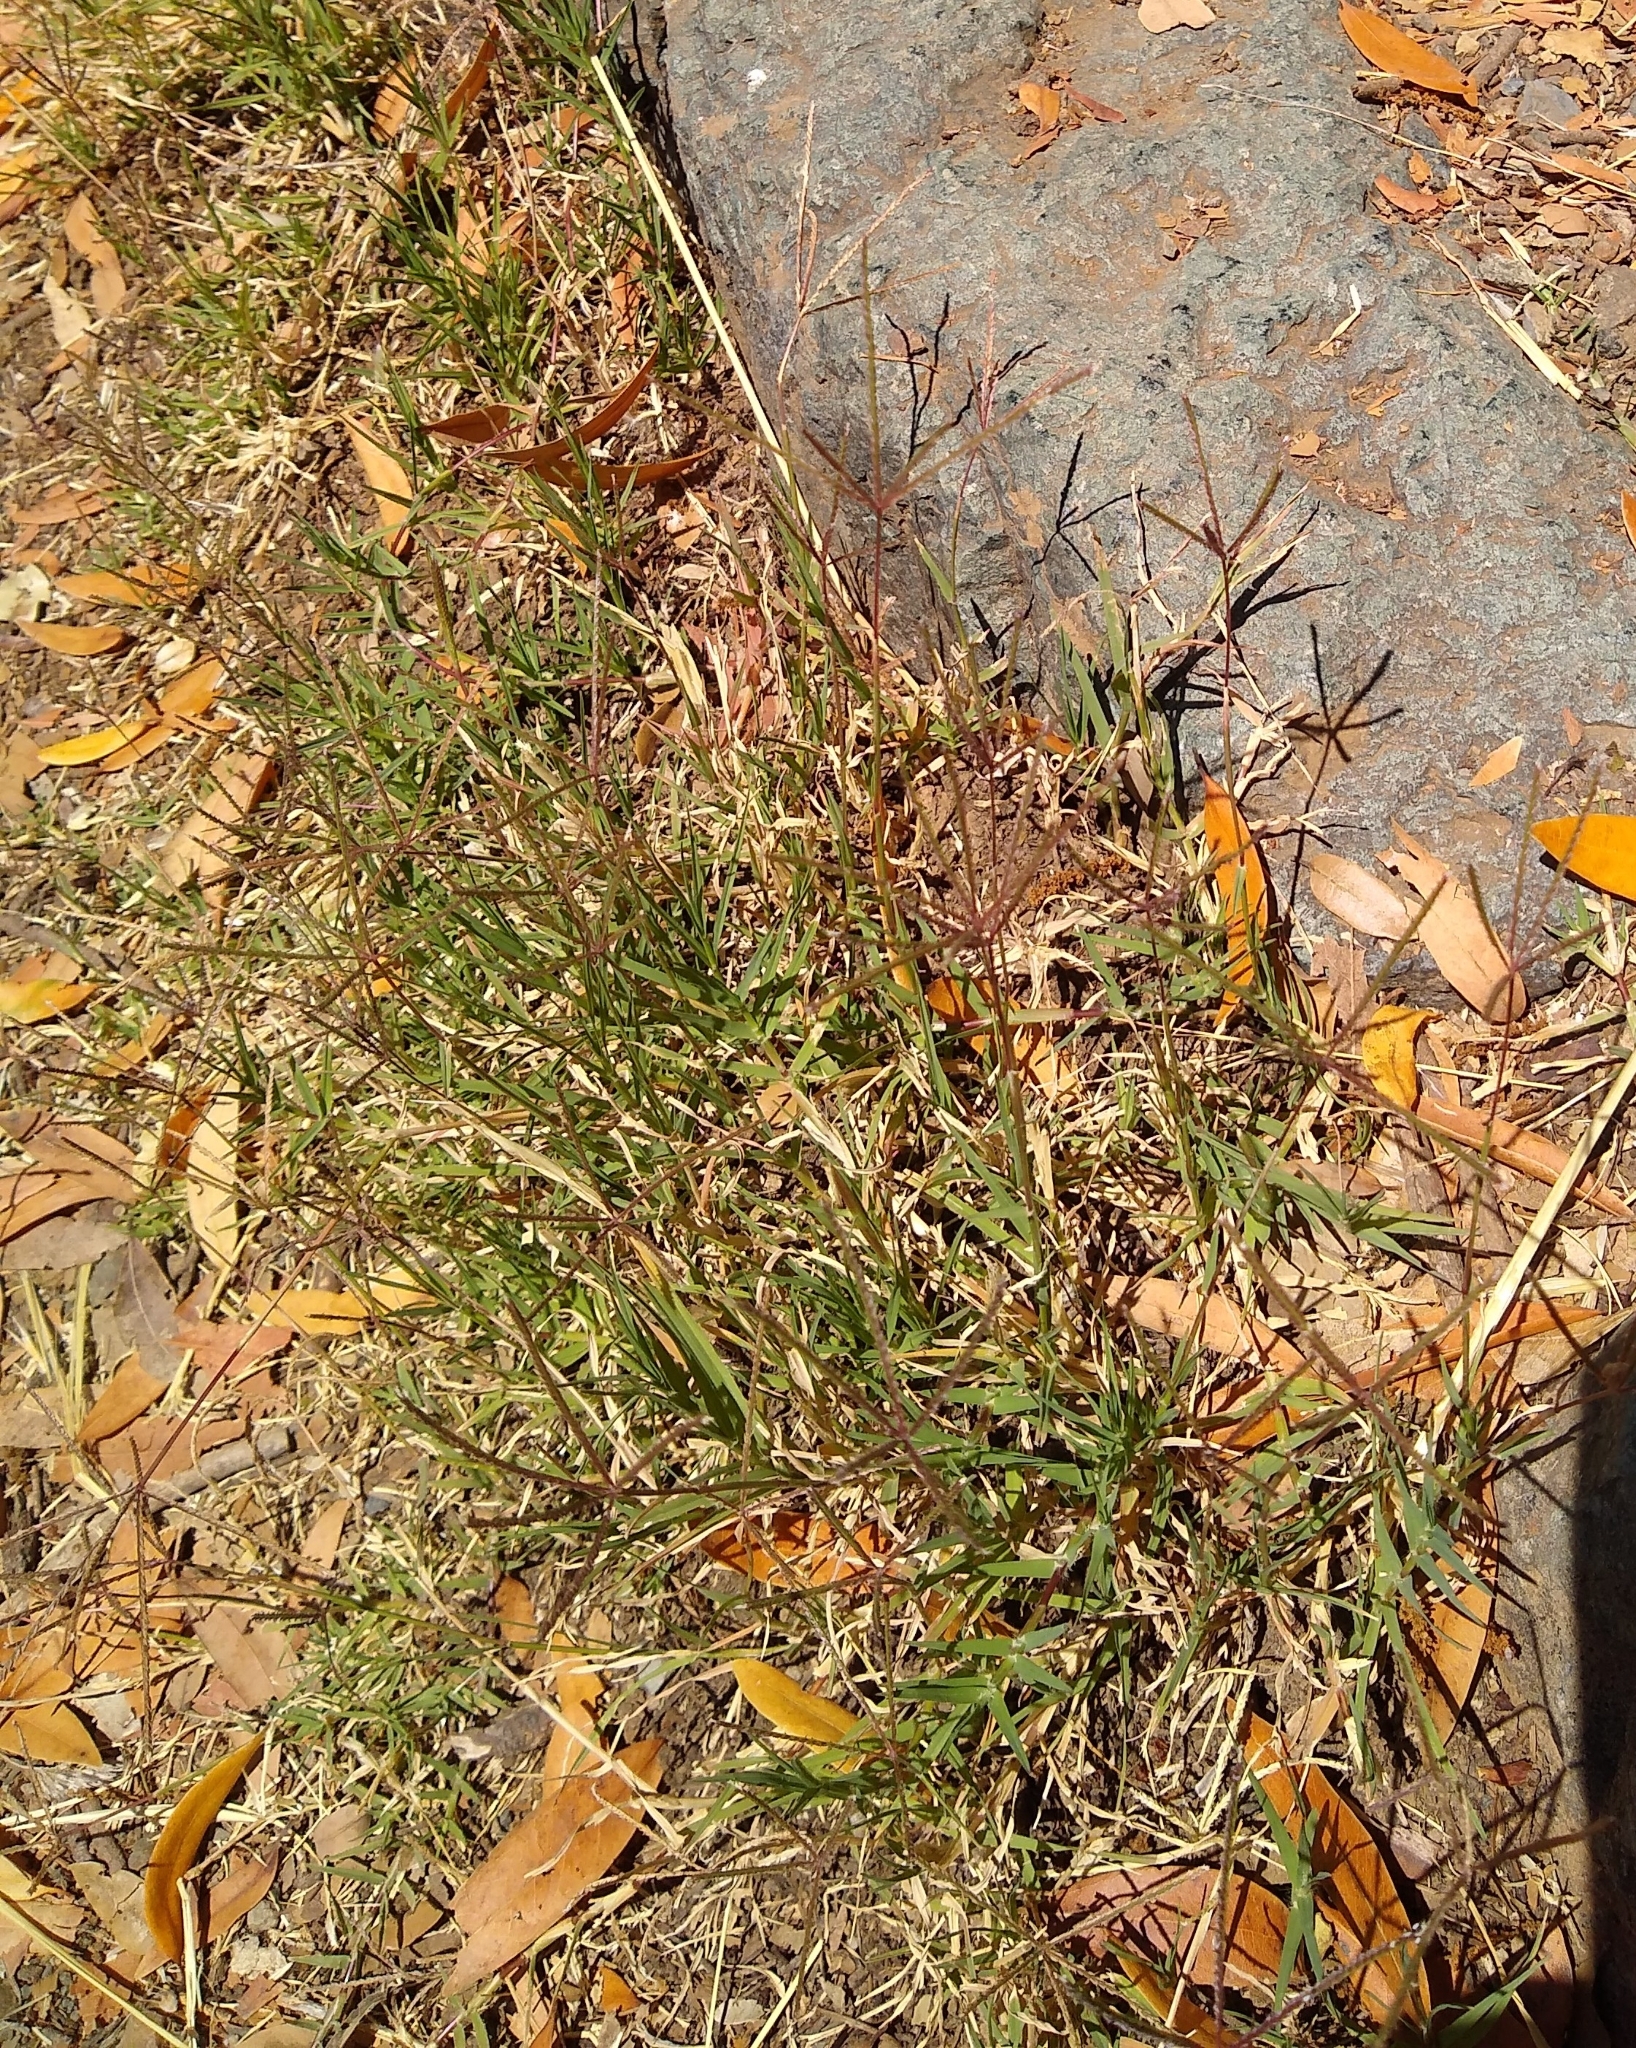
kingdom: Plantae
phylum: Tracheophyta
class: Liliopsida
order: Poales
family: Poaceae
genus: Cynodon
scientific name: Cynodon dactylon
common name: Bermuda grass
